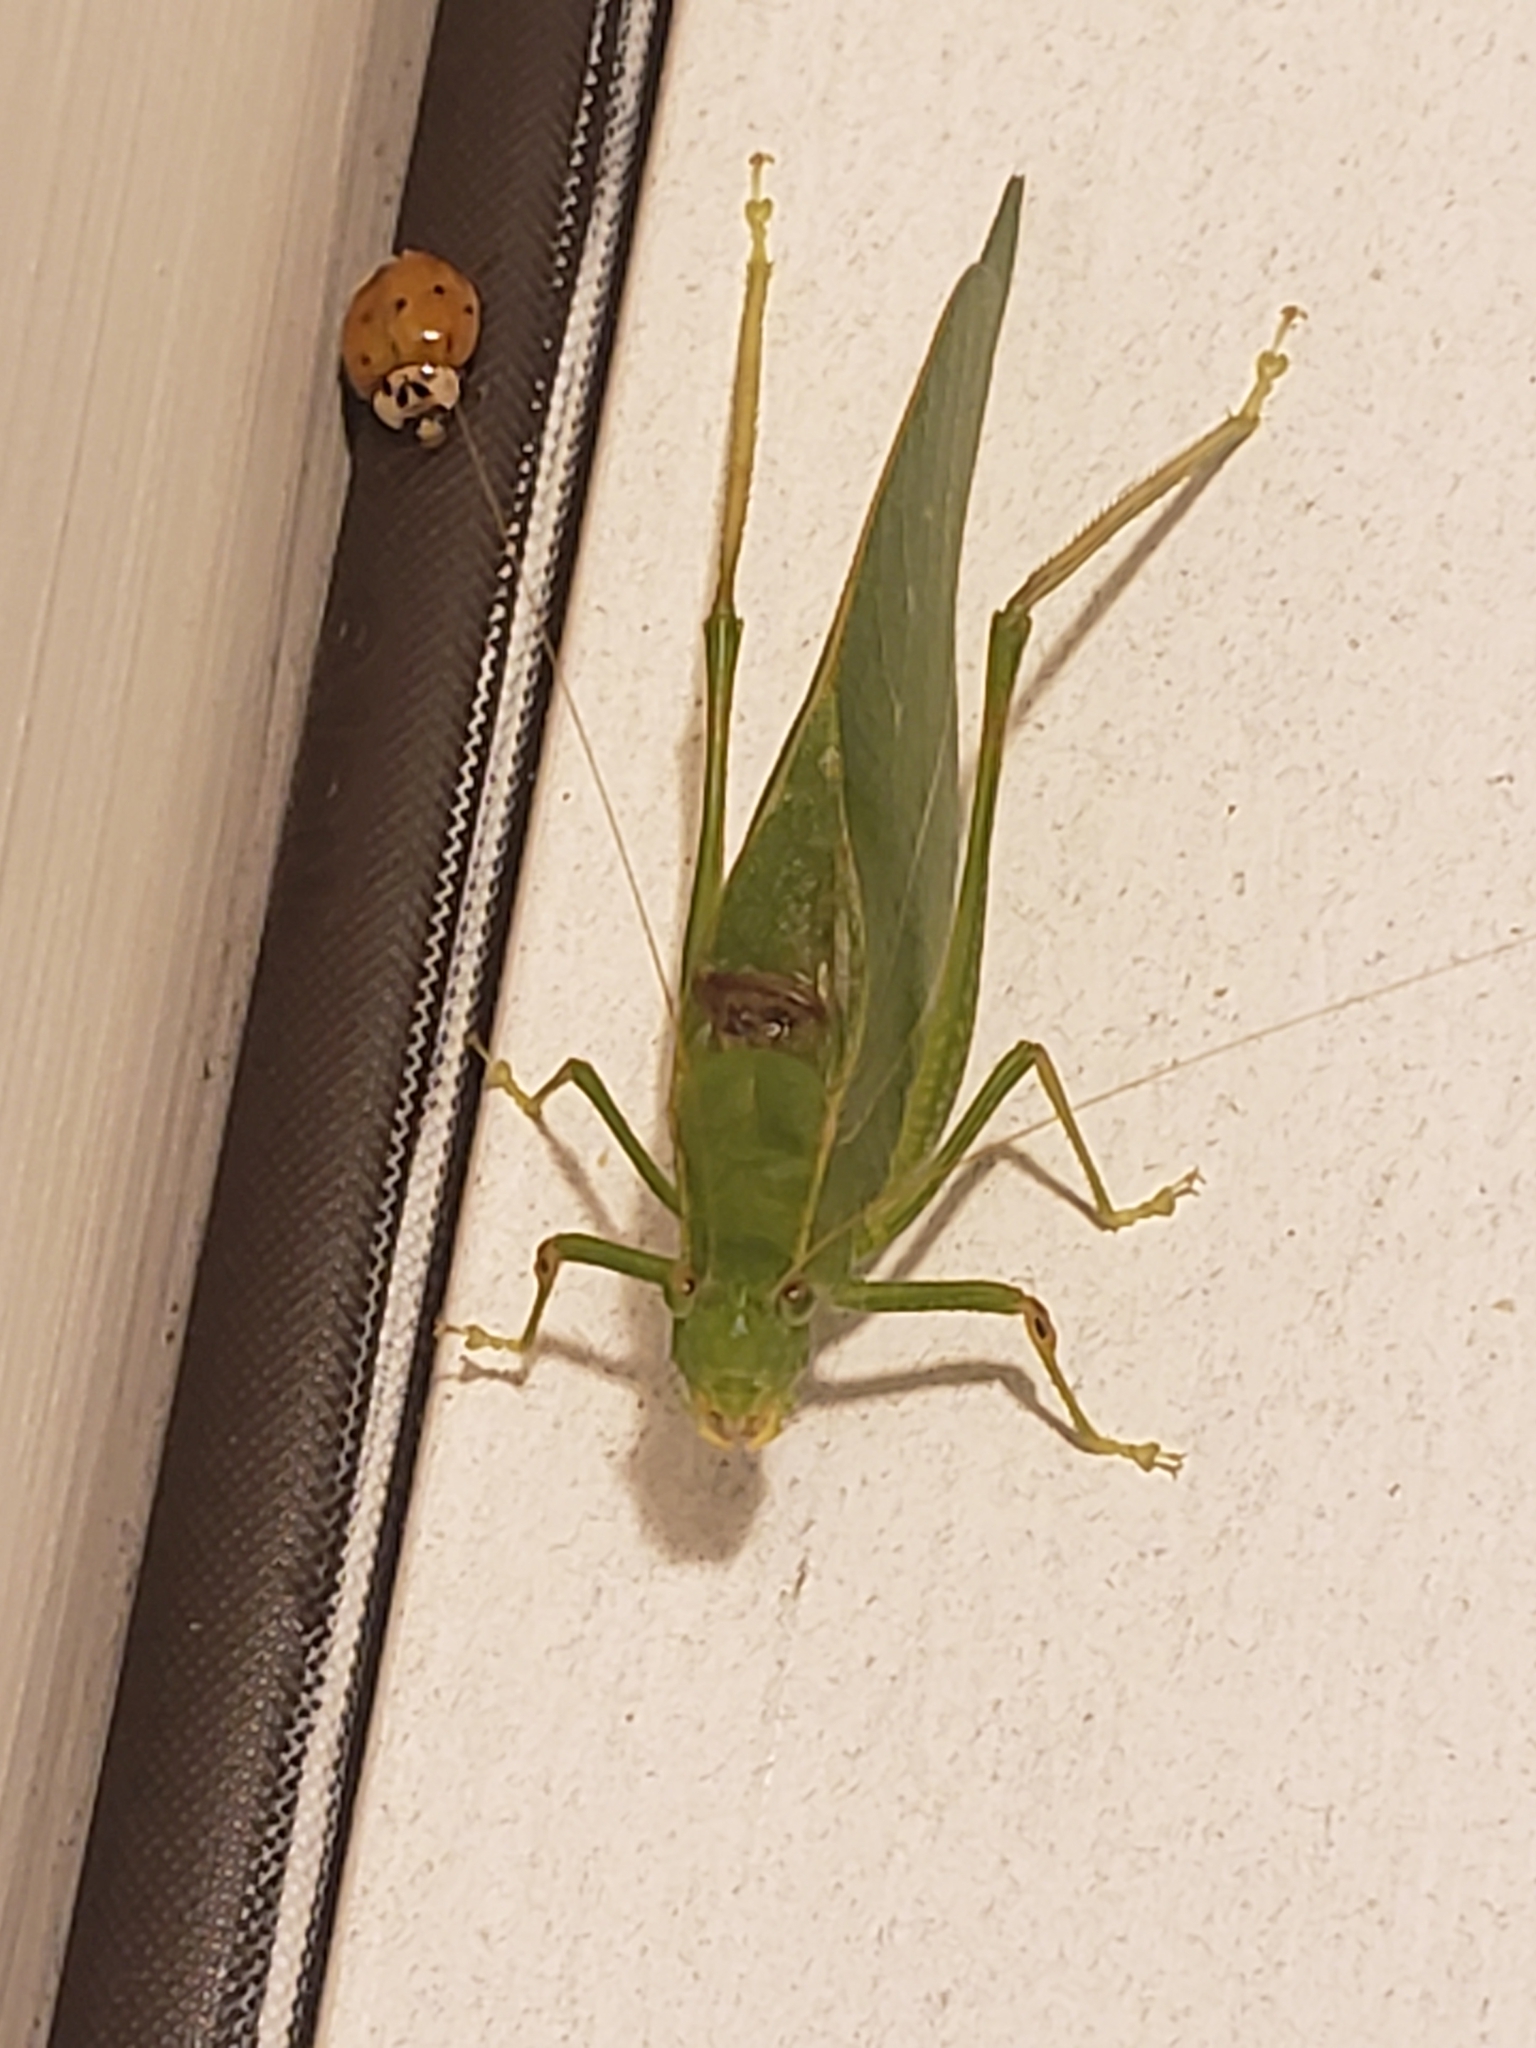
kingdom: Animalia
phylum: Arthropoda
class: Insecta
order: Orthoptera
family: Tettigoniidae
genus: Microcentrum
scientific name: Microcentrum retinerve
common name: Angular-winged katydid
